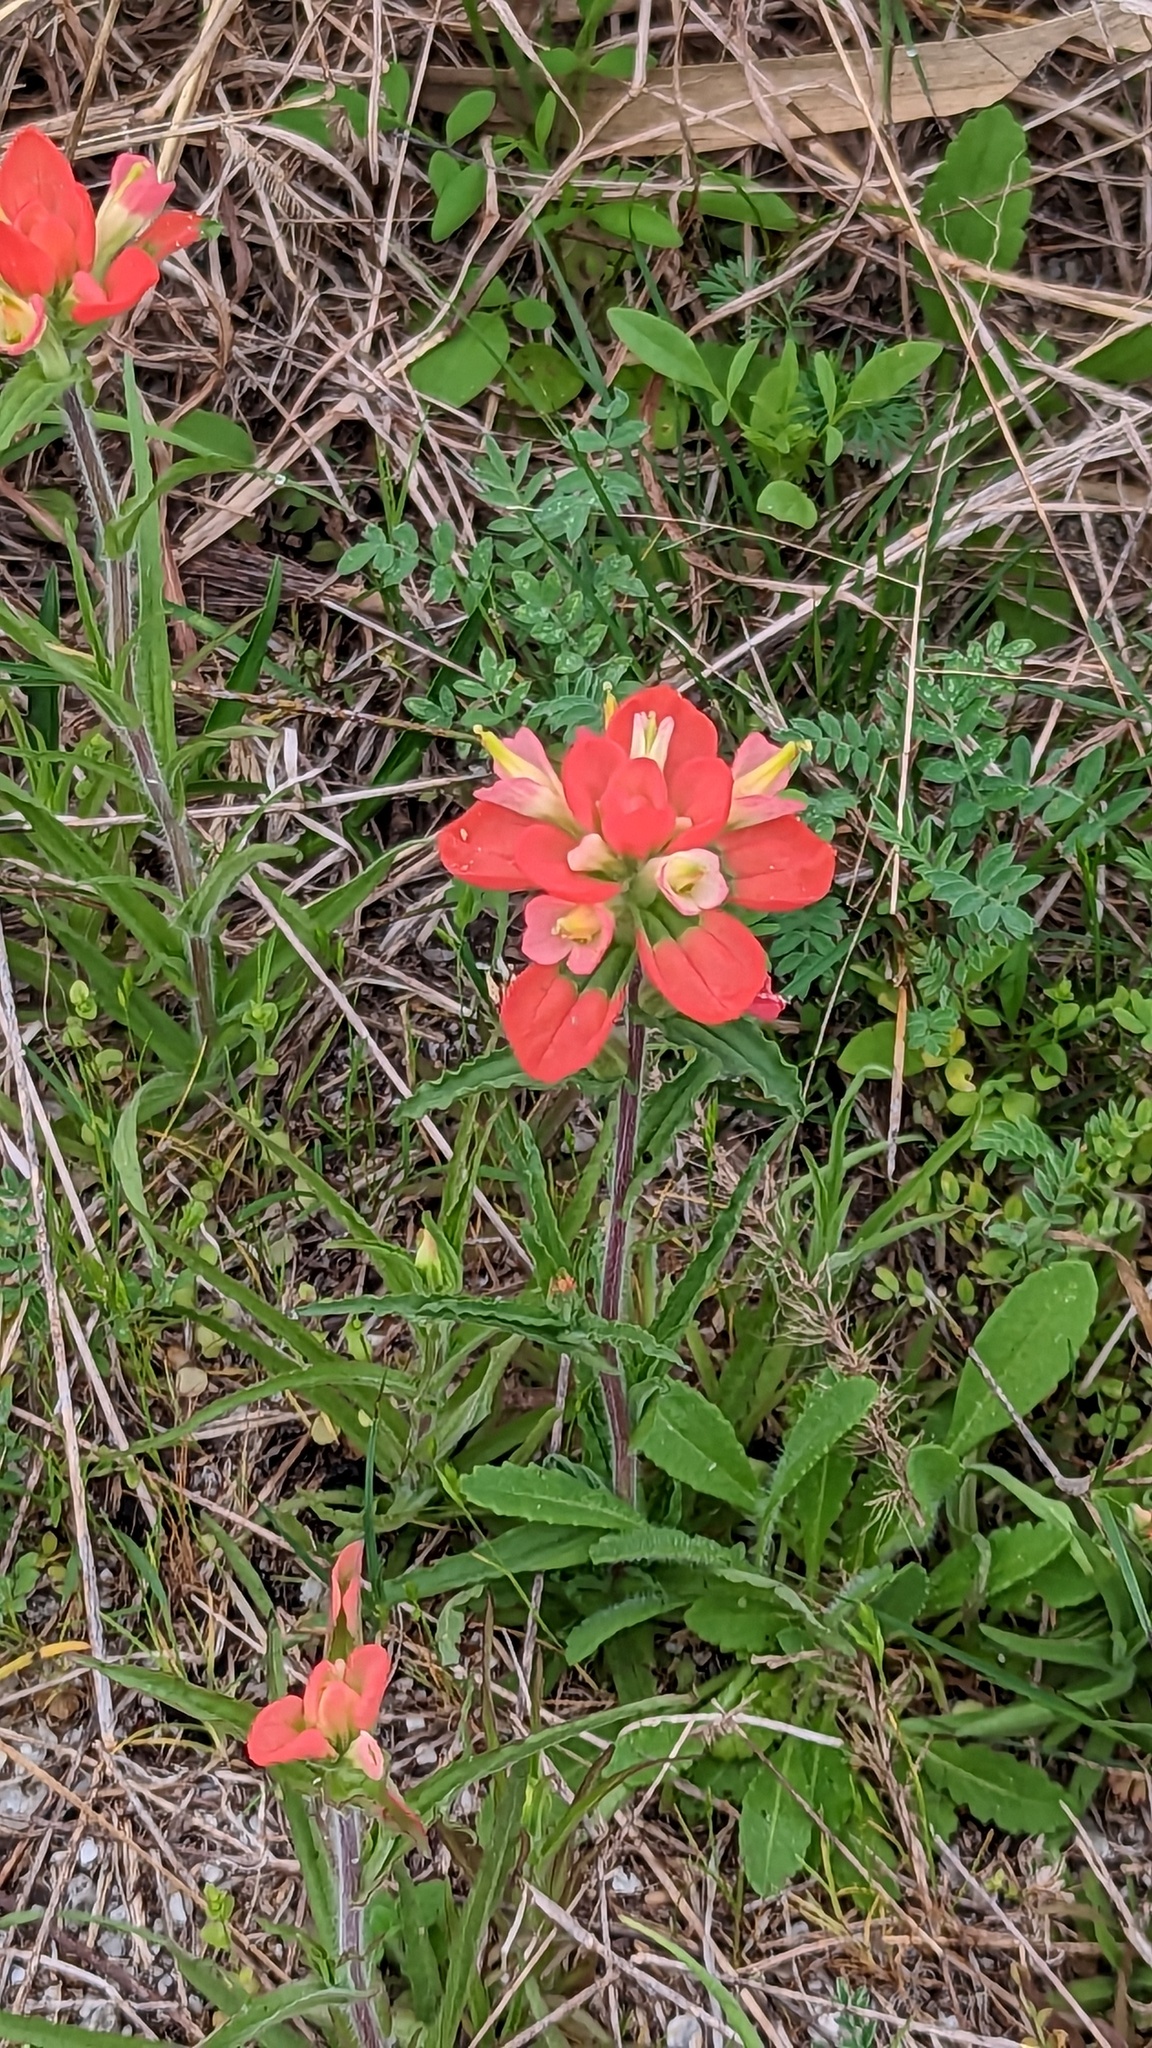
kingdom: Plantae
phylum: Tracheophyta
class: Magnoliopsida
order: Lamiales
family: Orobanchaceae
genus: Castilleja
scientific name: Castilleja indivisa
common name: Texas paintbrush
